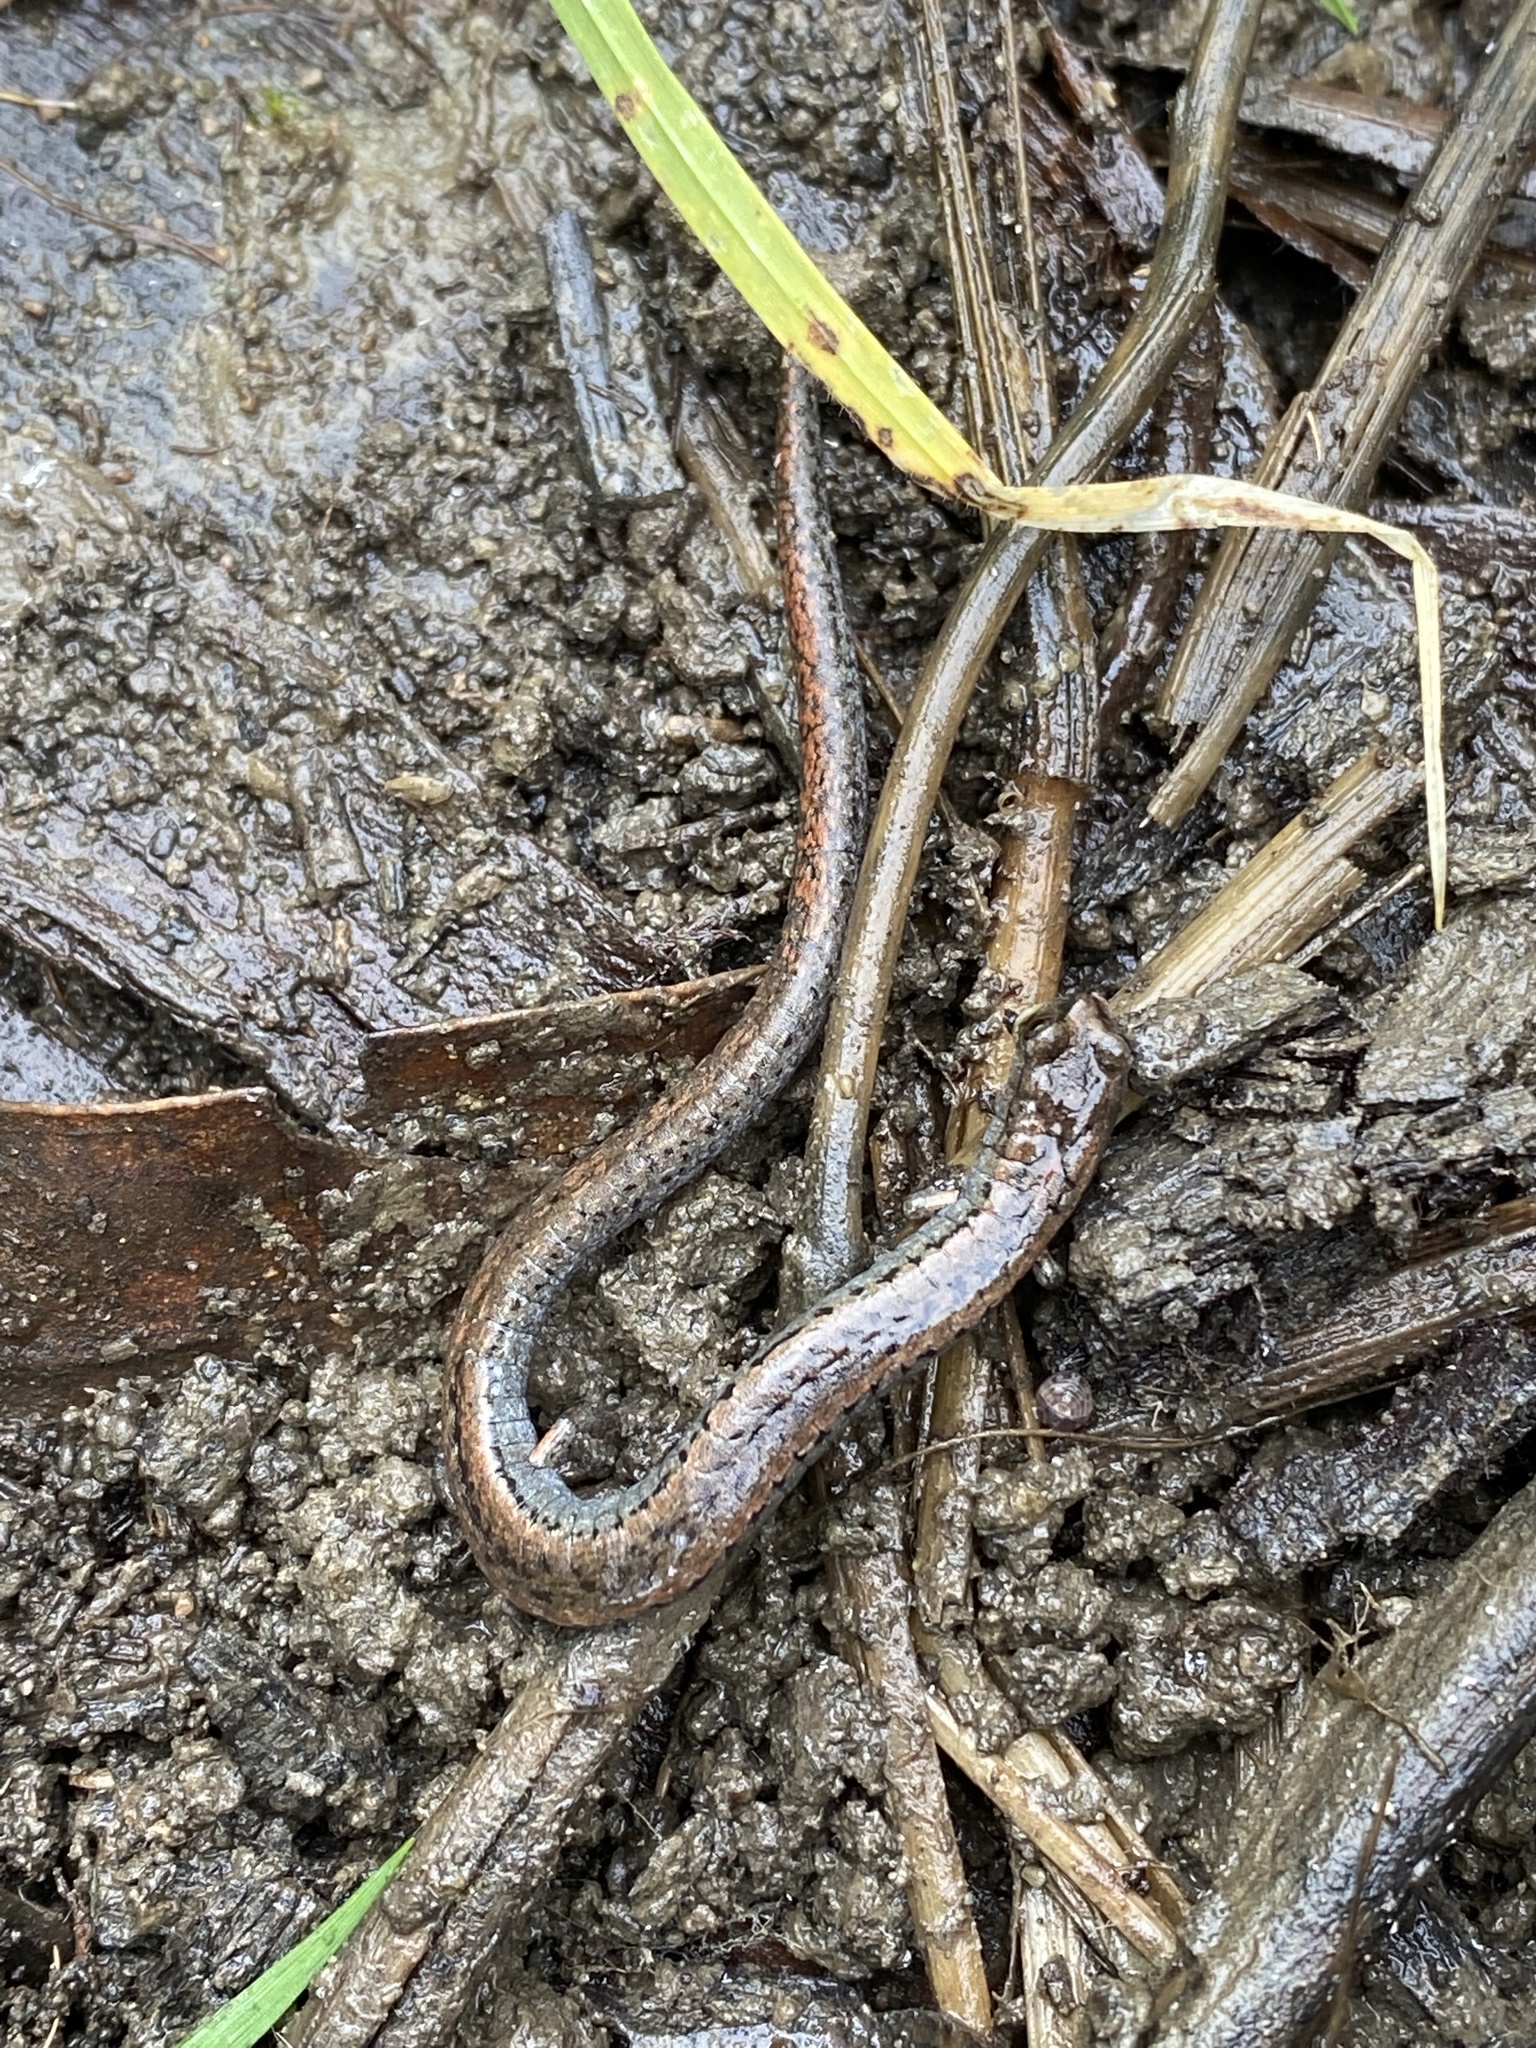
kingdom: Animalia
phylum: Chordata
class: Amphibia
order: Caudata
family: Plethodontidae
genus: Batrachoseps
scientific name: Batrachoseps attenuatus
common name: California slender salamander
